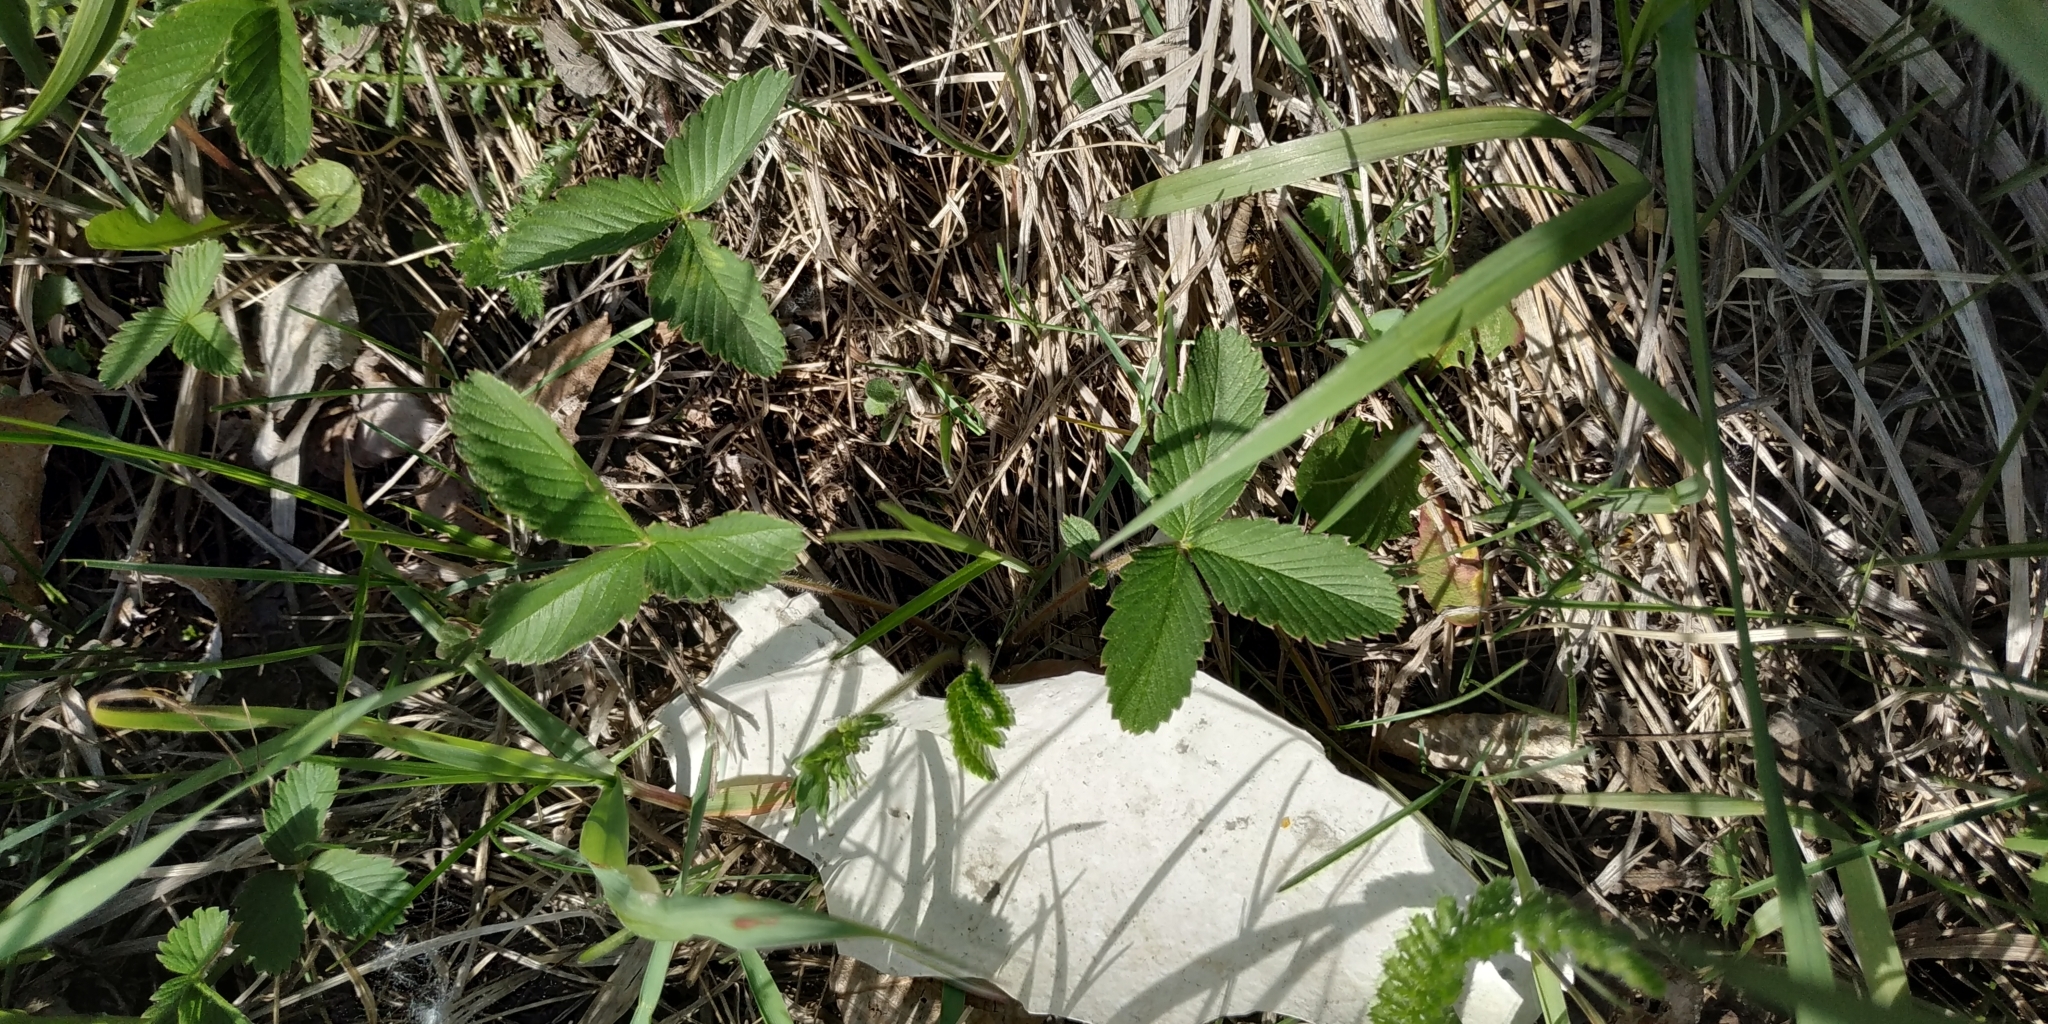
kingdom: Plantae
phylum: Tracheophyta
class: Magnoliopsida
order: Rosales
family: Rosaceae
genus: Fragaria
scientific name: Fragaria viridis
